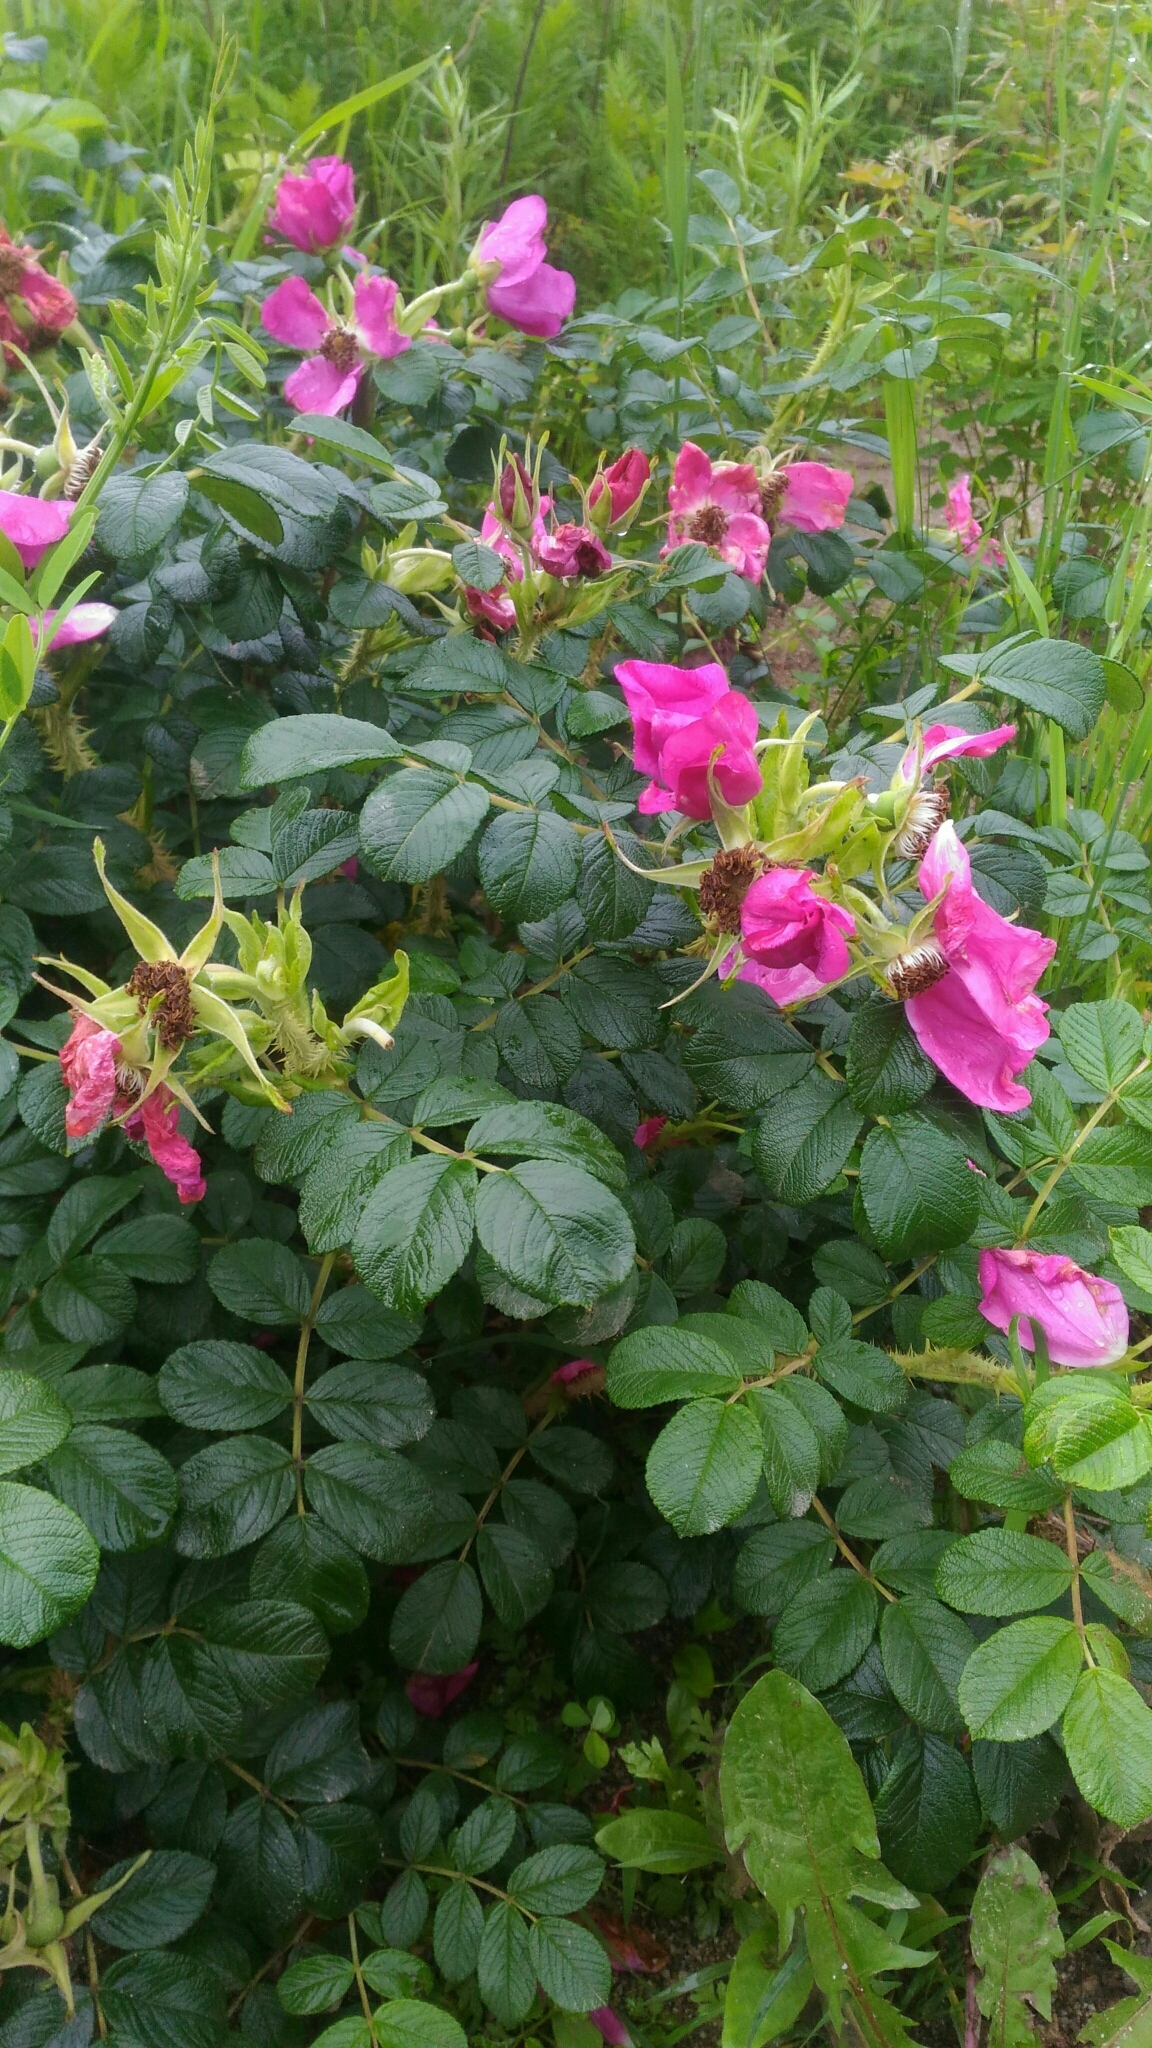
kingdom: Plantae
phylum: Tracheophyta
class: Magnoliopsida
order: Rosales
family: Rosaceae
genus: Rosa
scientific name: Rosa rugosa
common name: Japanese rose
